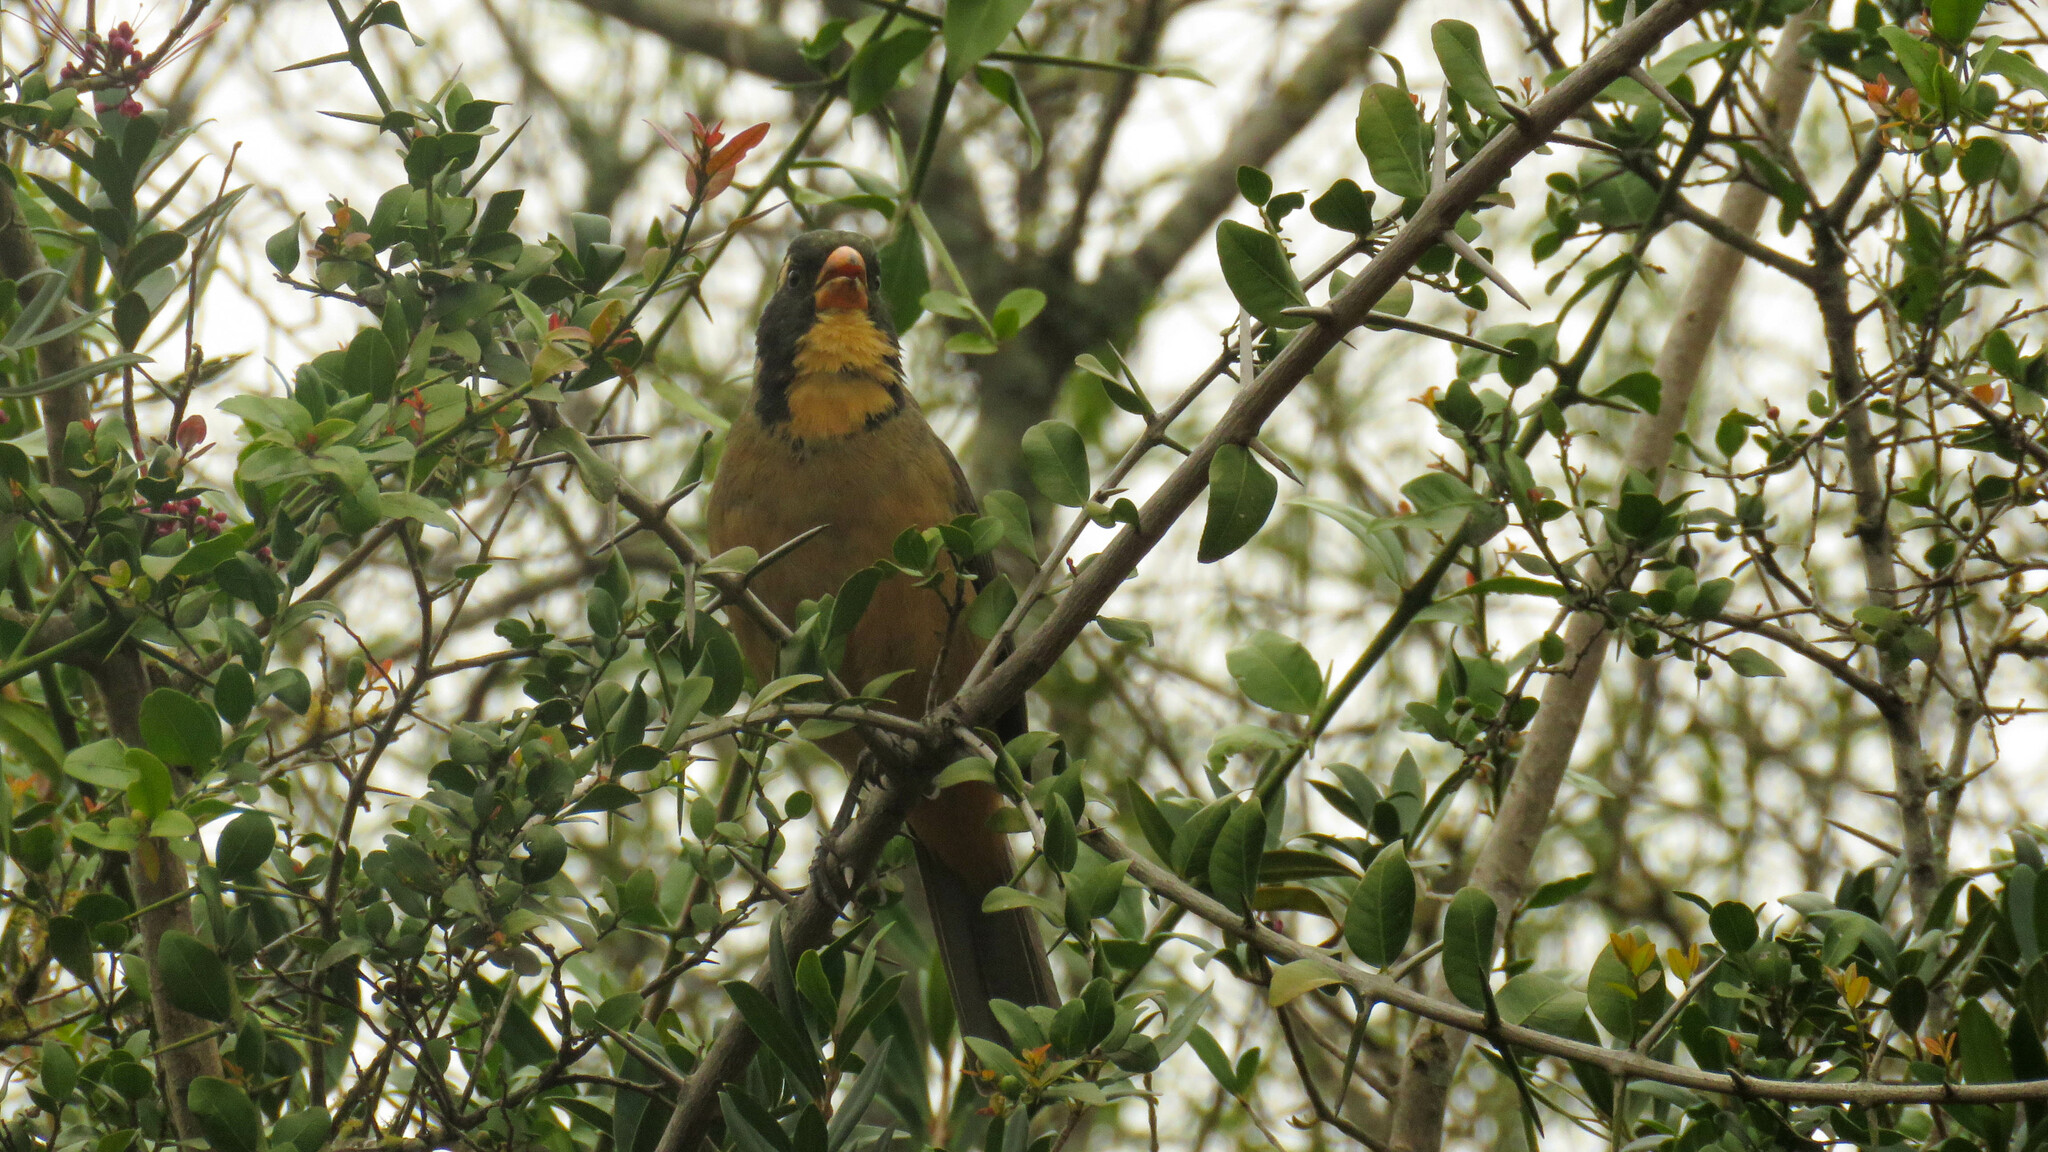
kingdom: Animalia
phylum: Chordata
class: Aves
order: Passeriformes
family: Thraupidae
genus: Saltator
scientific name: Saltator aurantiirostris
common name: Golden-billed saltator
